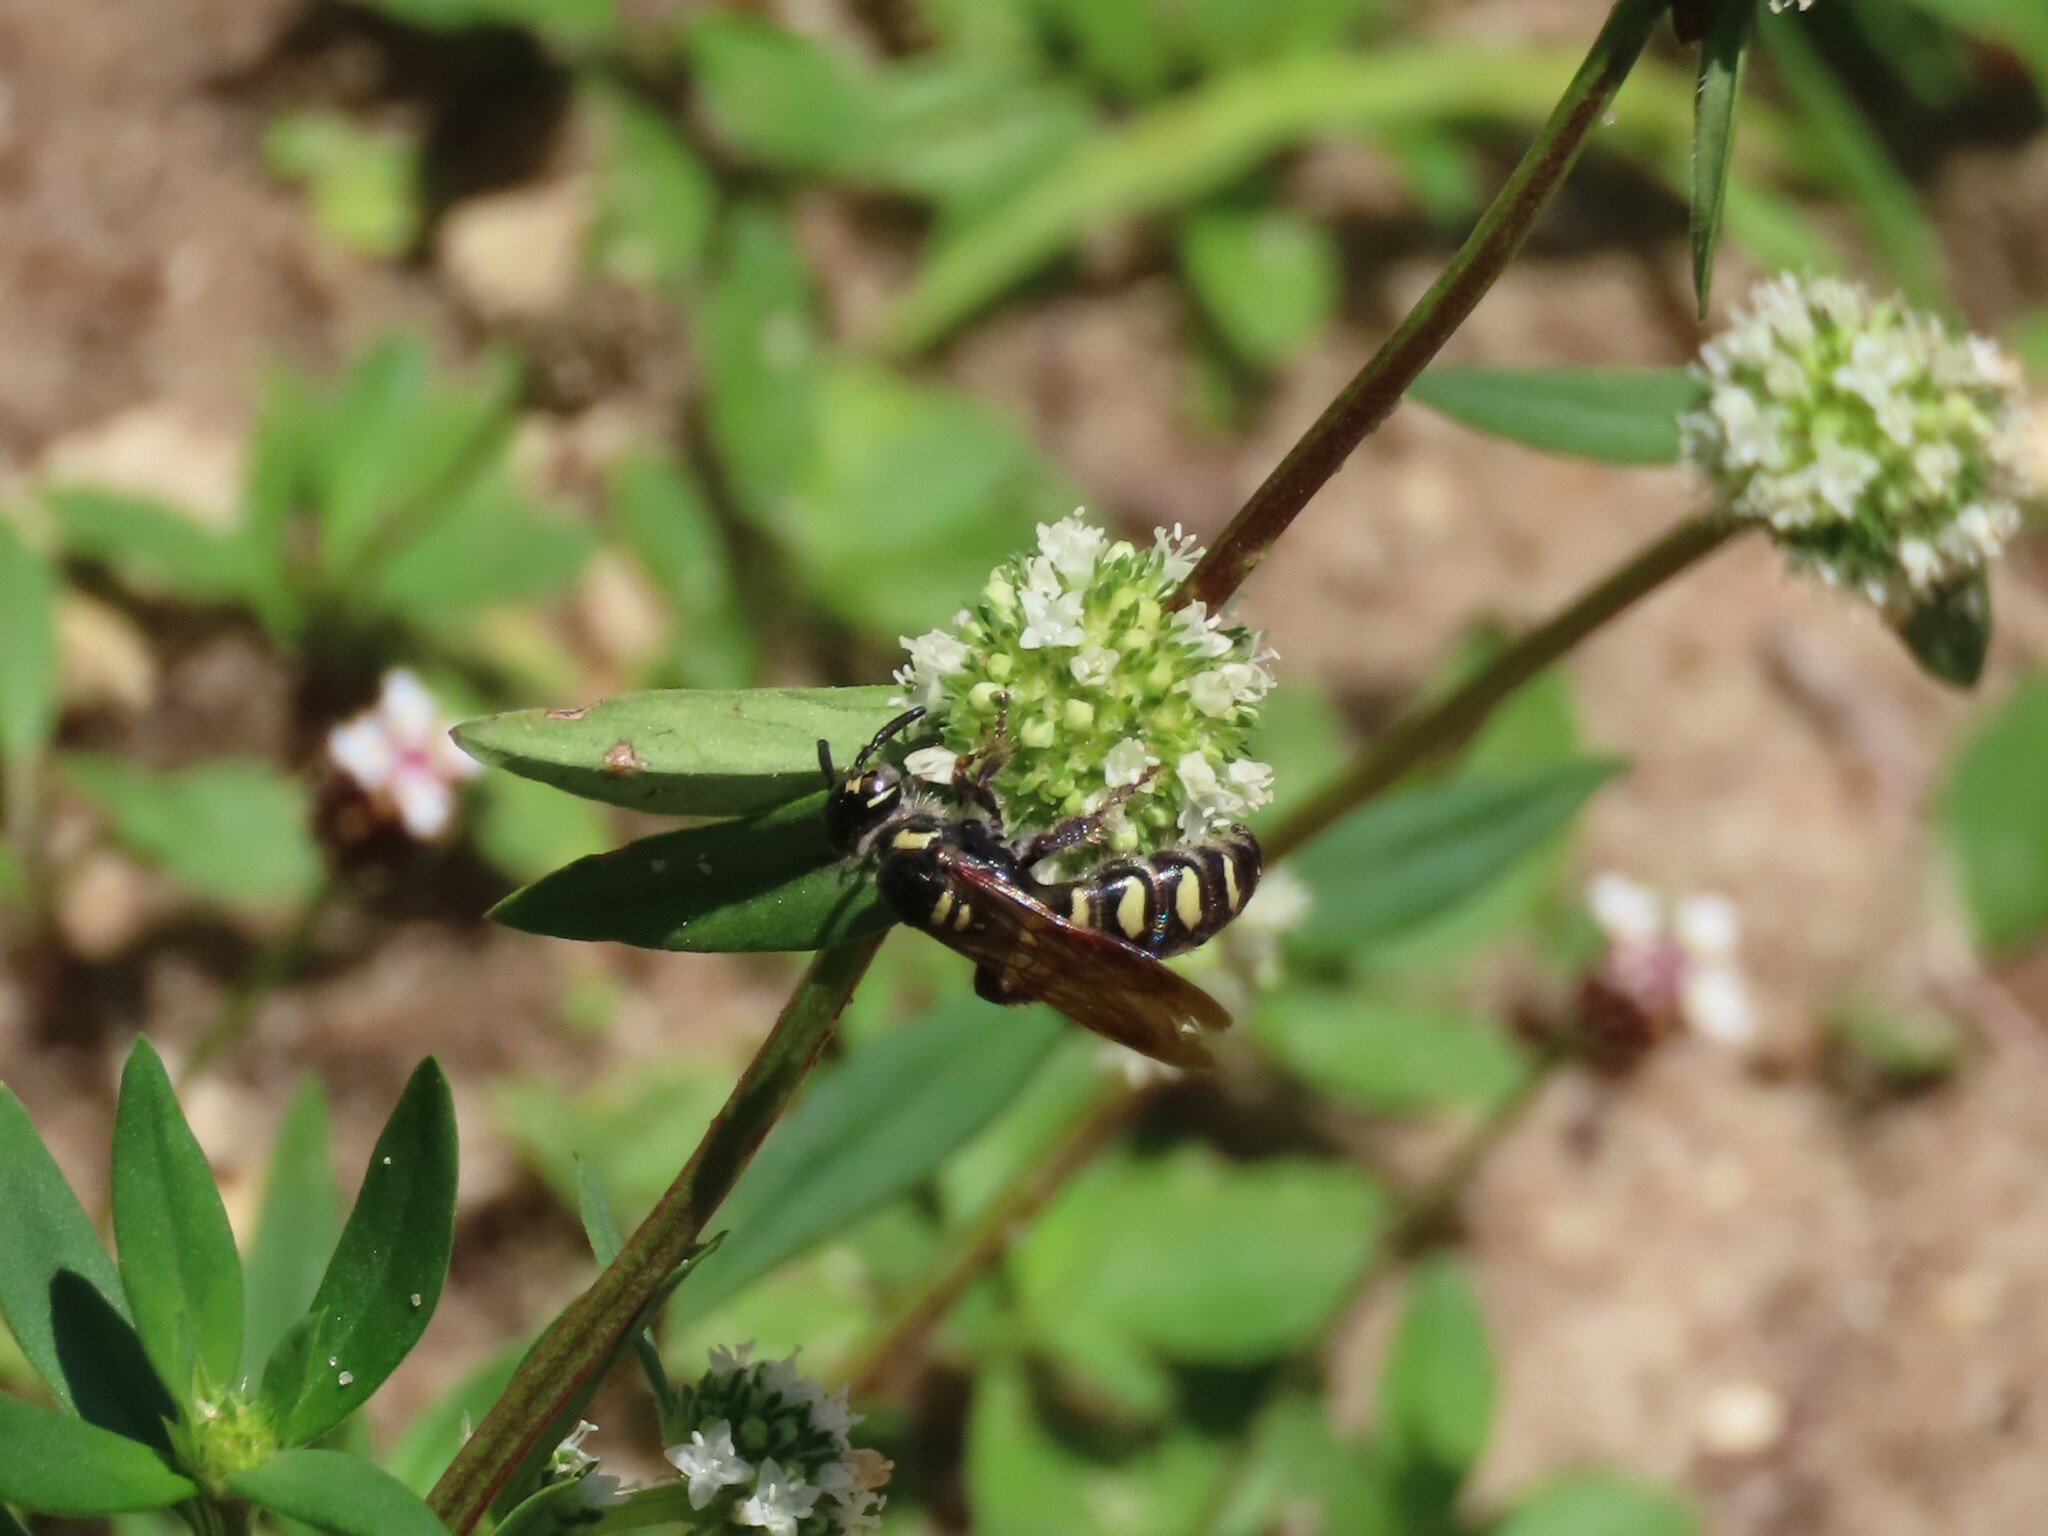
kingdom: Animalia
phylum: Arthropoda
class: Insecta
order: Hymenoptera
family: Scoliidae
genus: Colpa
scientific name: Colpa octomaculata
